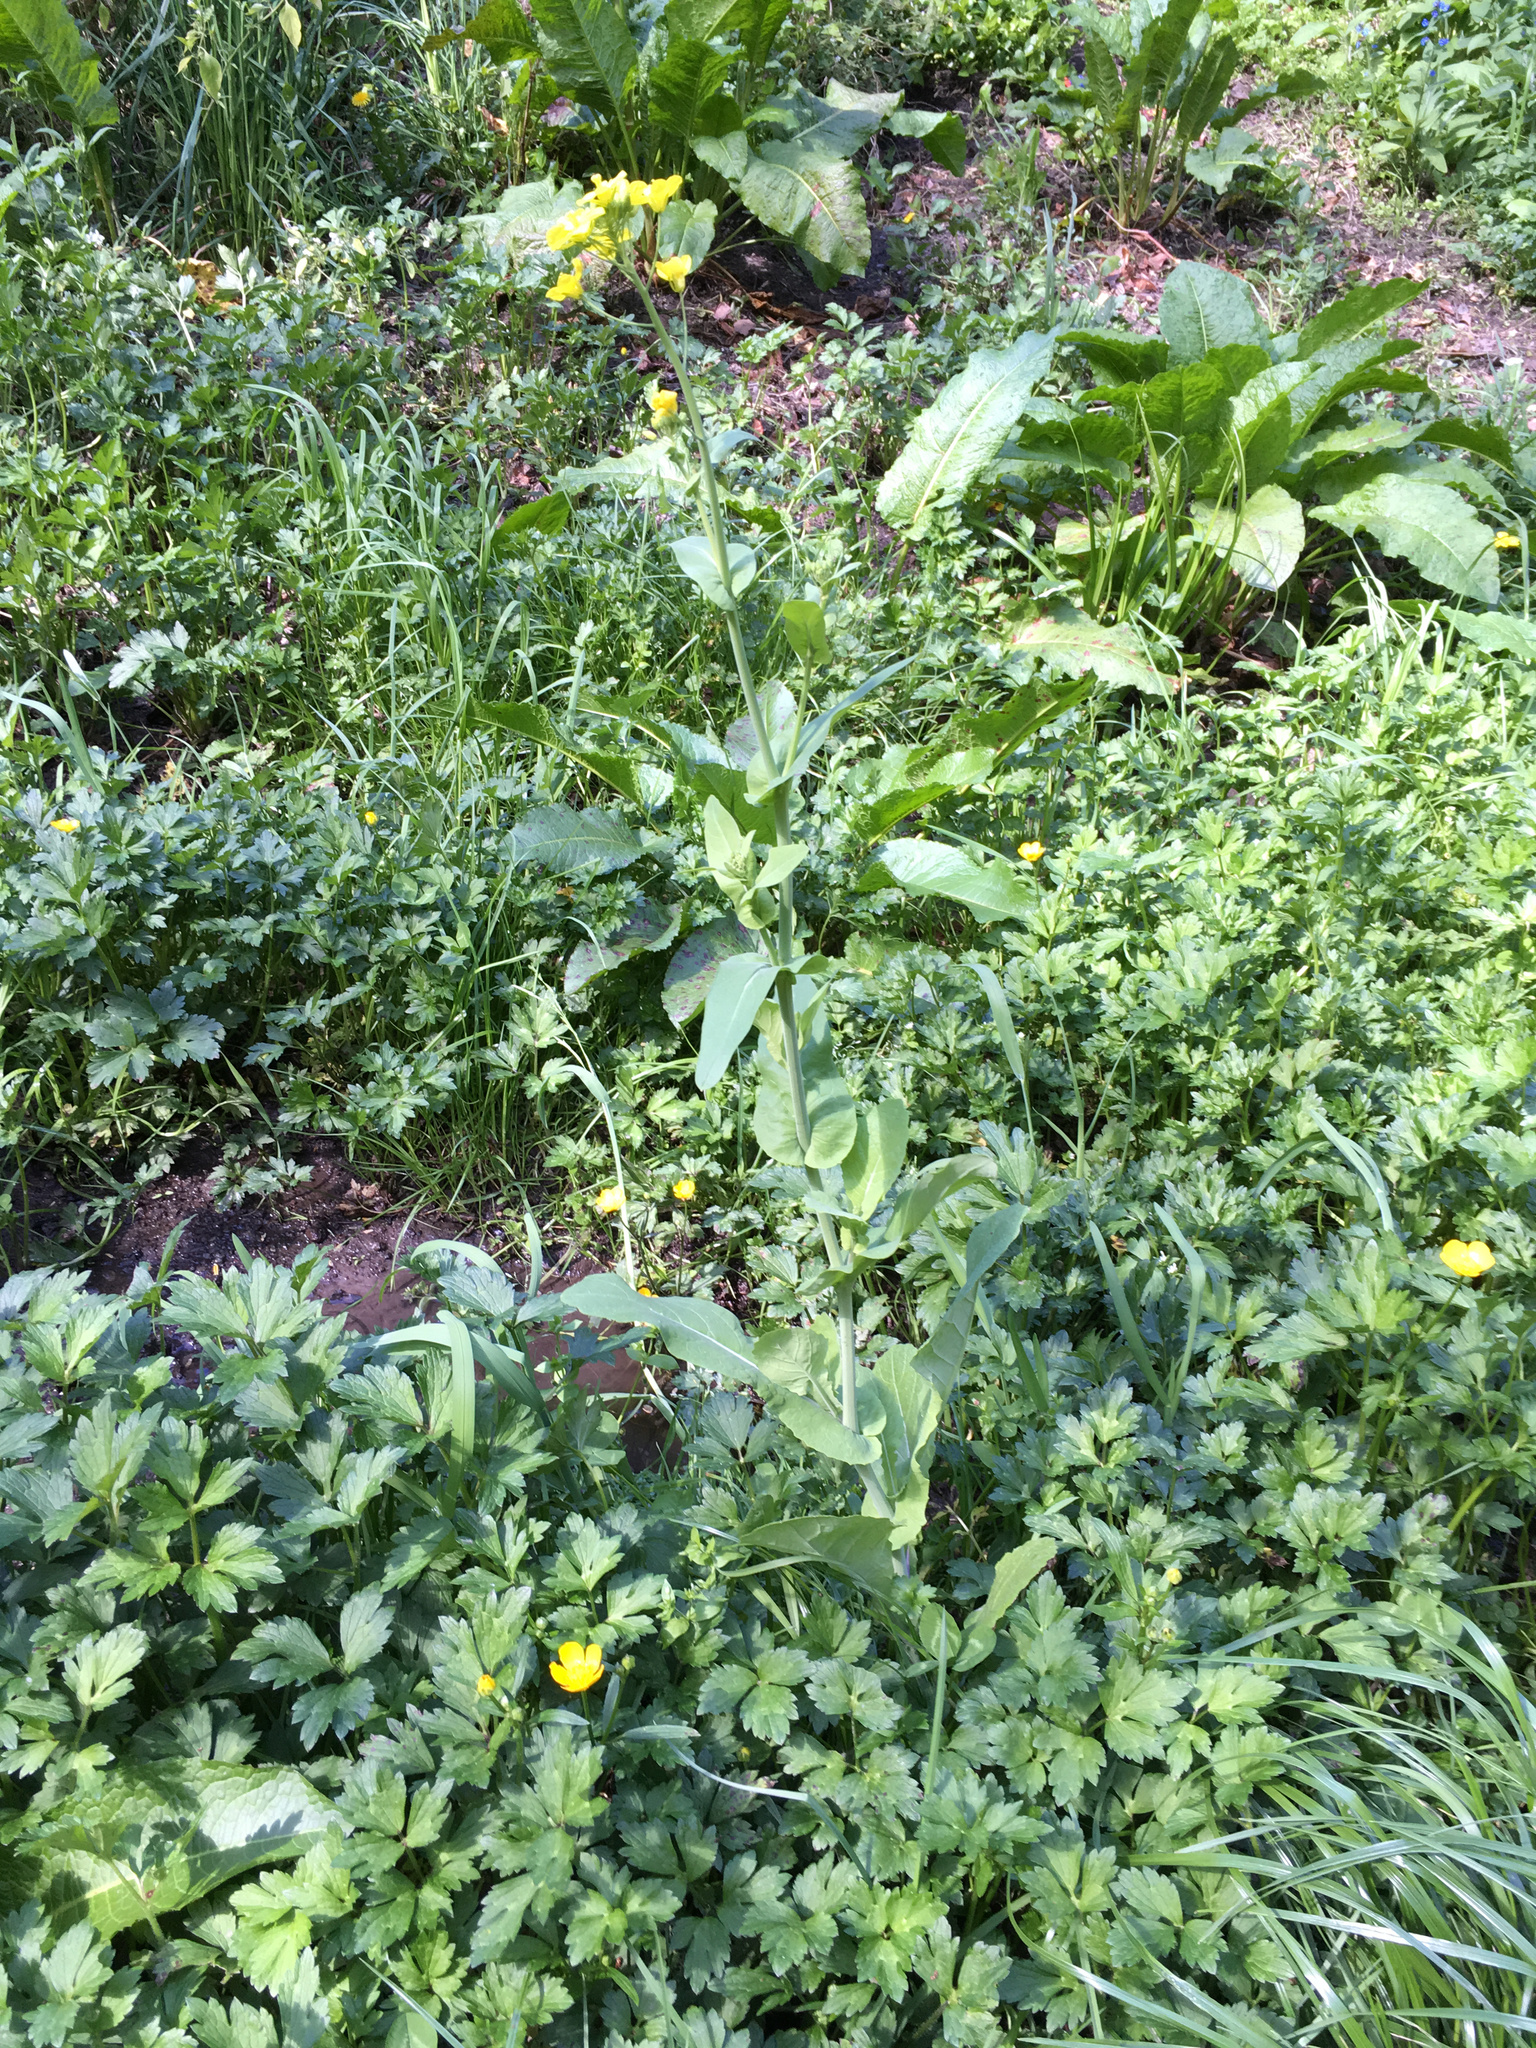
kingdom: Plantae
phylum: Tracheophyta
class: Magnoliopsida
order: Brassicales
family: Brassicaceae
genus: Brassica
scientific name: Brassica rapa
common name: Field mustard
